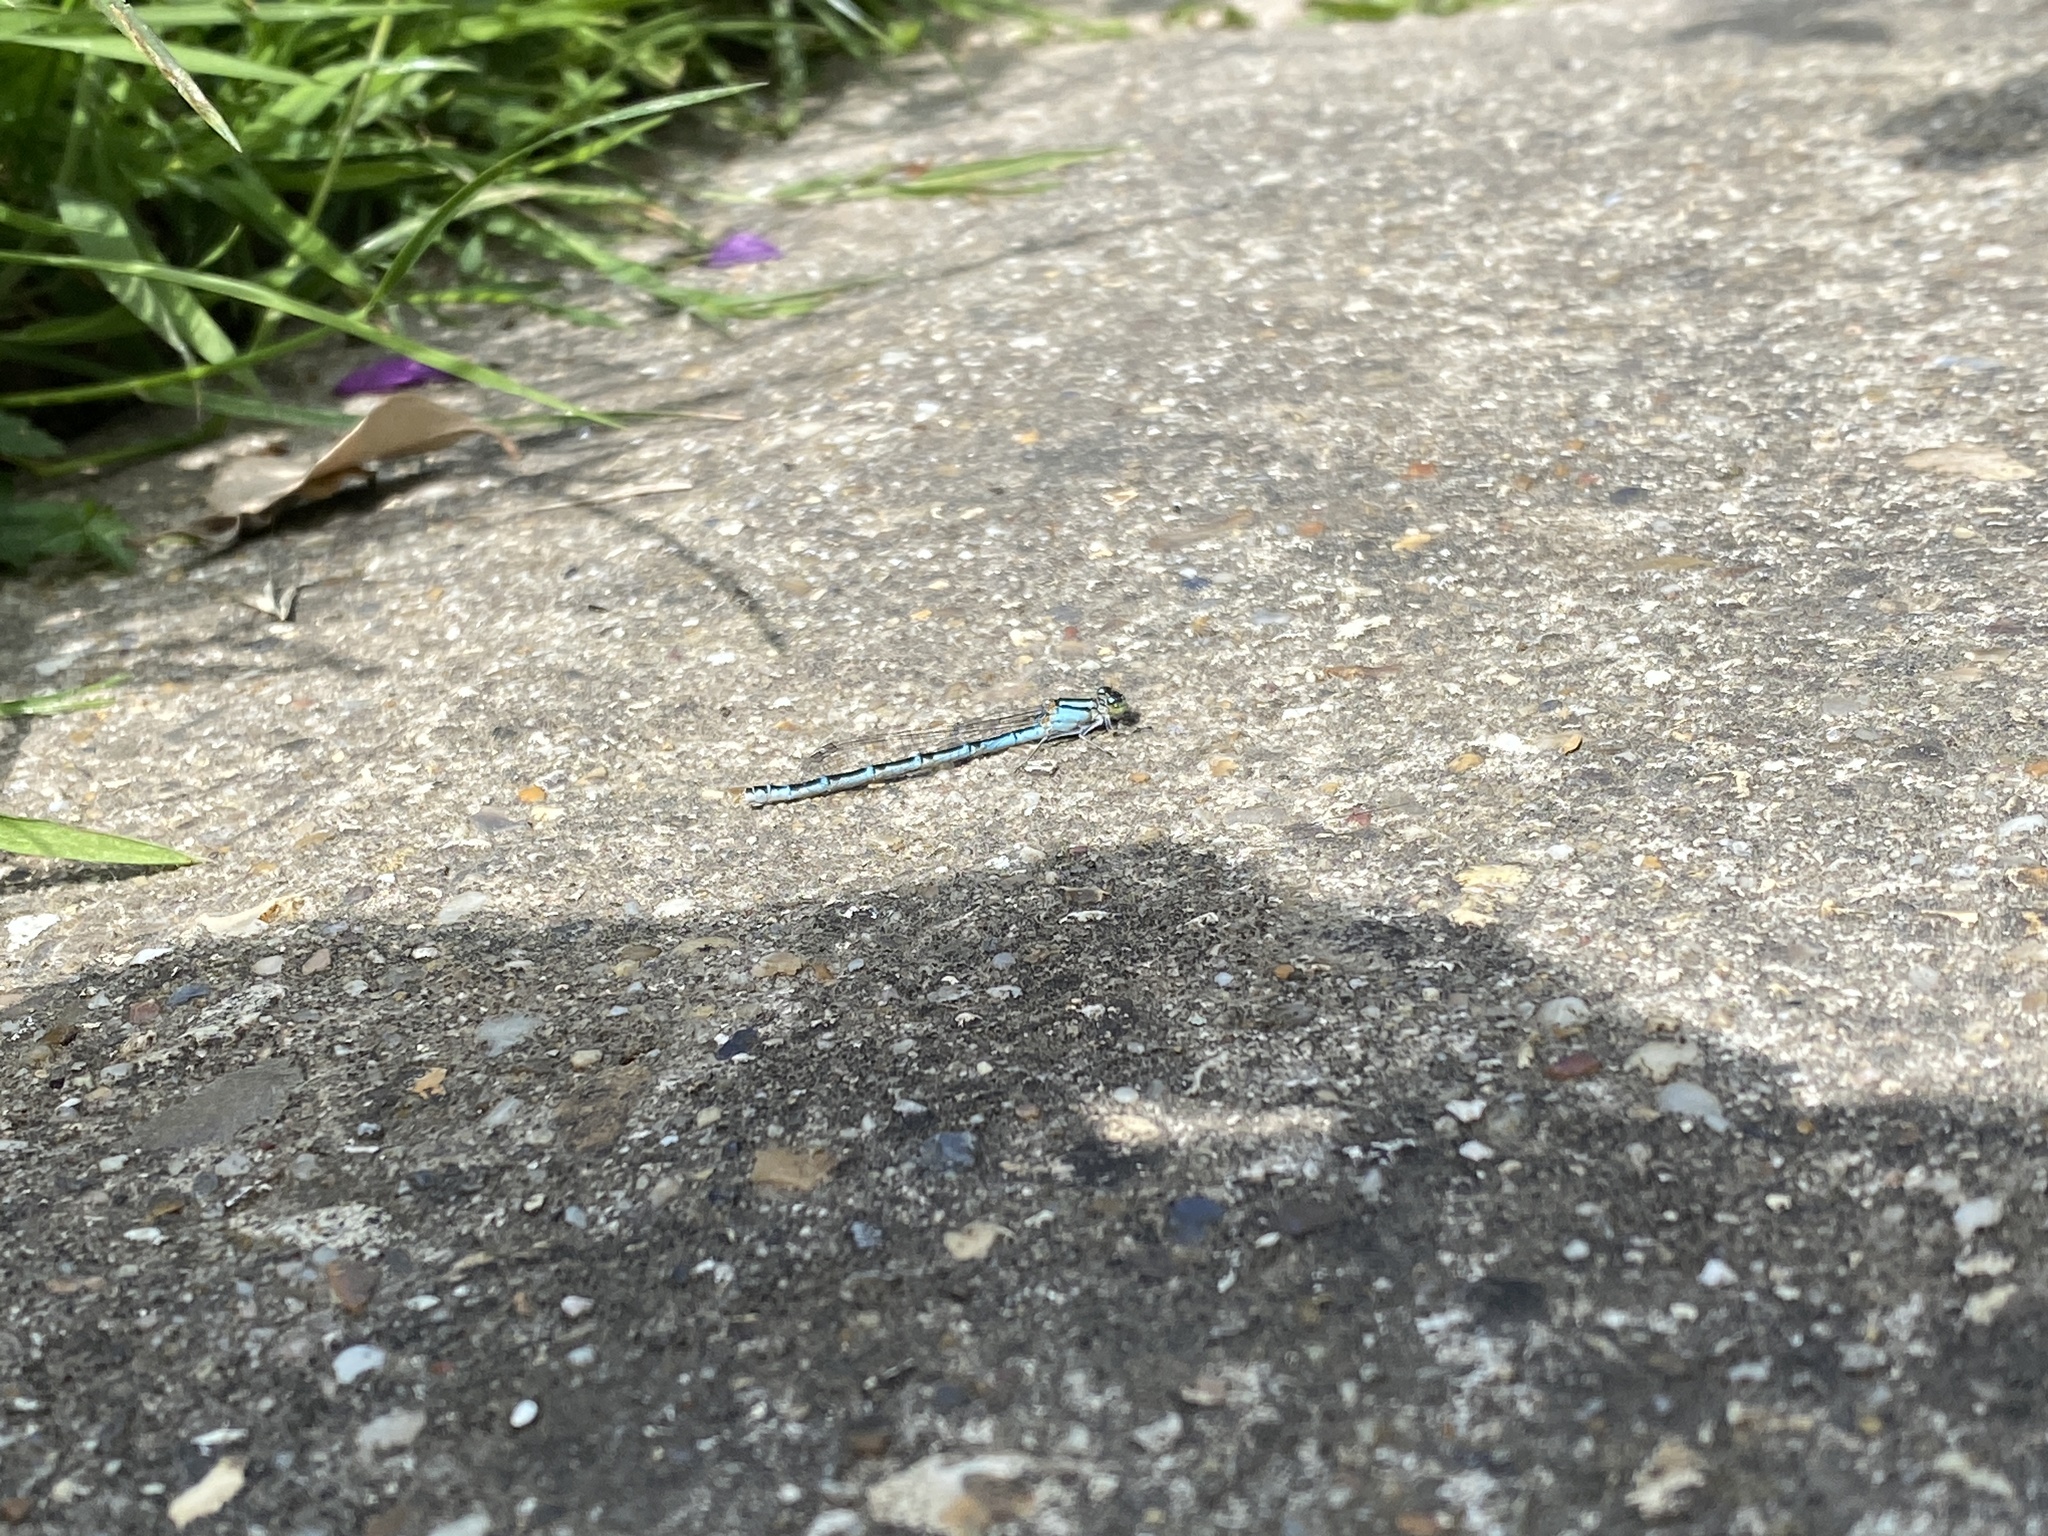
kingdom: Animalia
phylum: Arthropoda
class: Insecta
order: Odonata
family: Coenagrionidae
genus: Enallagma
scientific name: Enallagma cyathigerum
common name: Common blue damselfly
